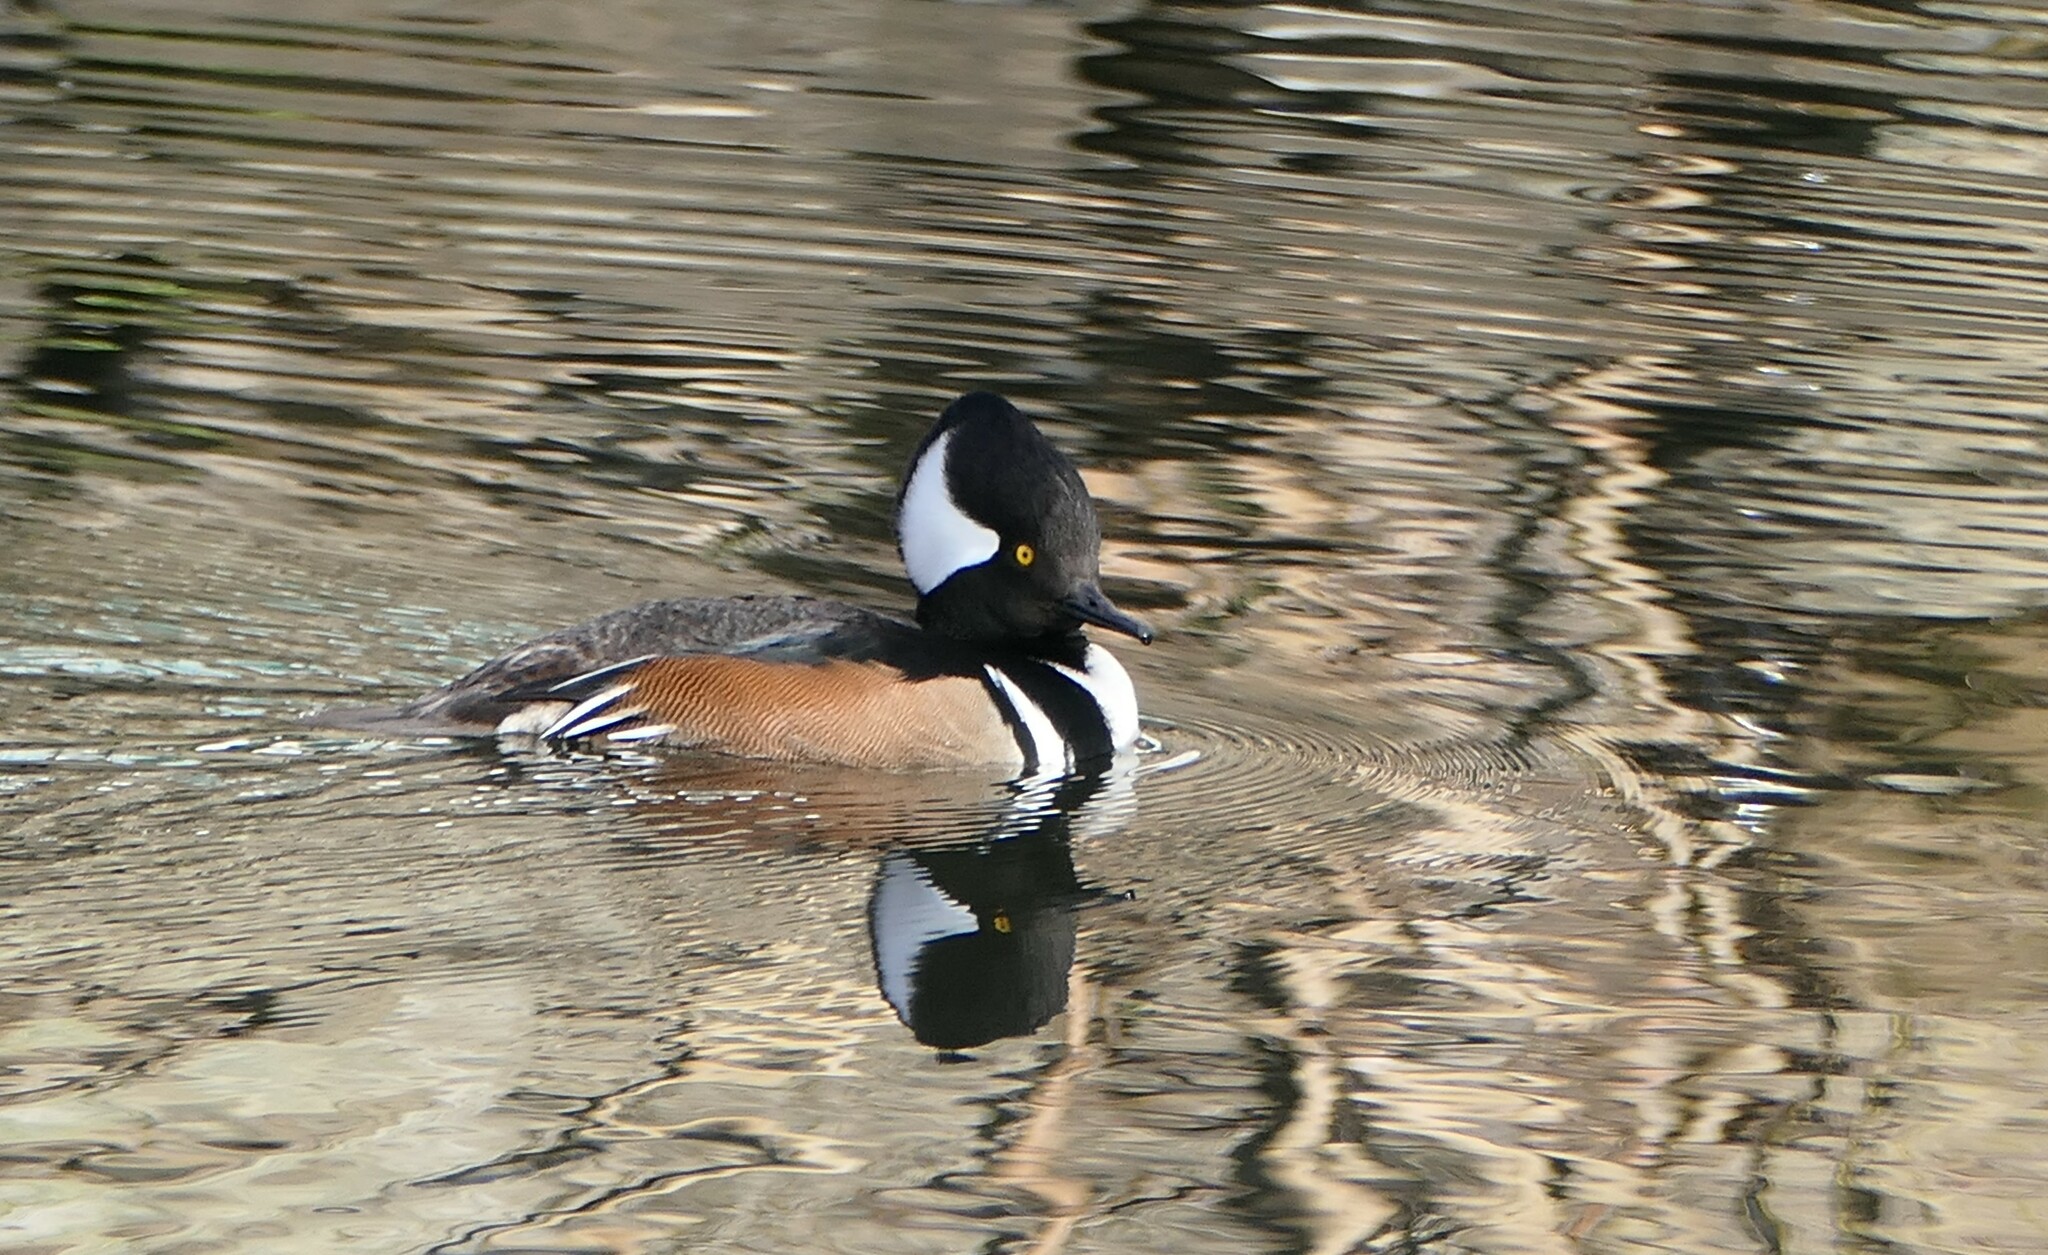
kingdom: Animalia
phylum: Chordata
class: Aves
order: Anseriformes
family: Anatidae
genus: Lophodytes
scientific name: Lophodytes cucullatus
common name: Hooded merganser
